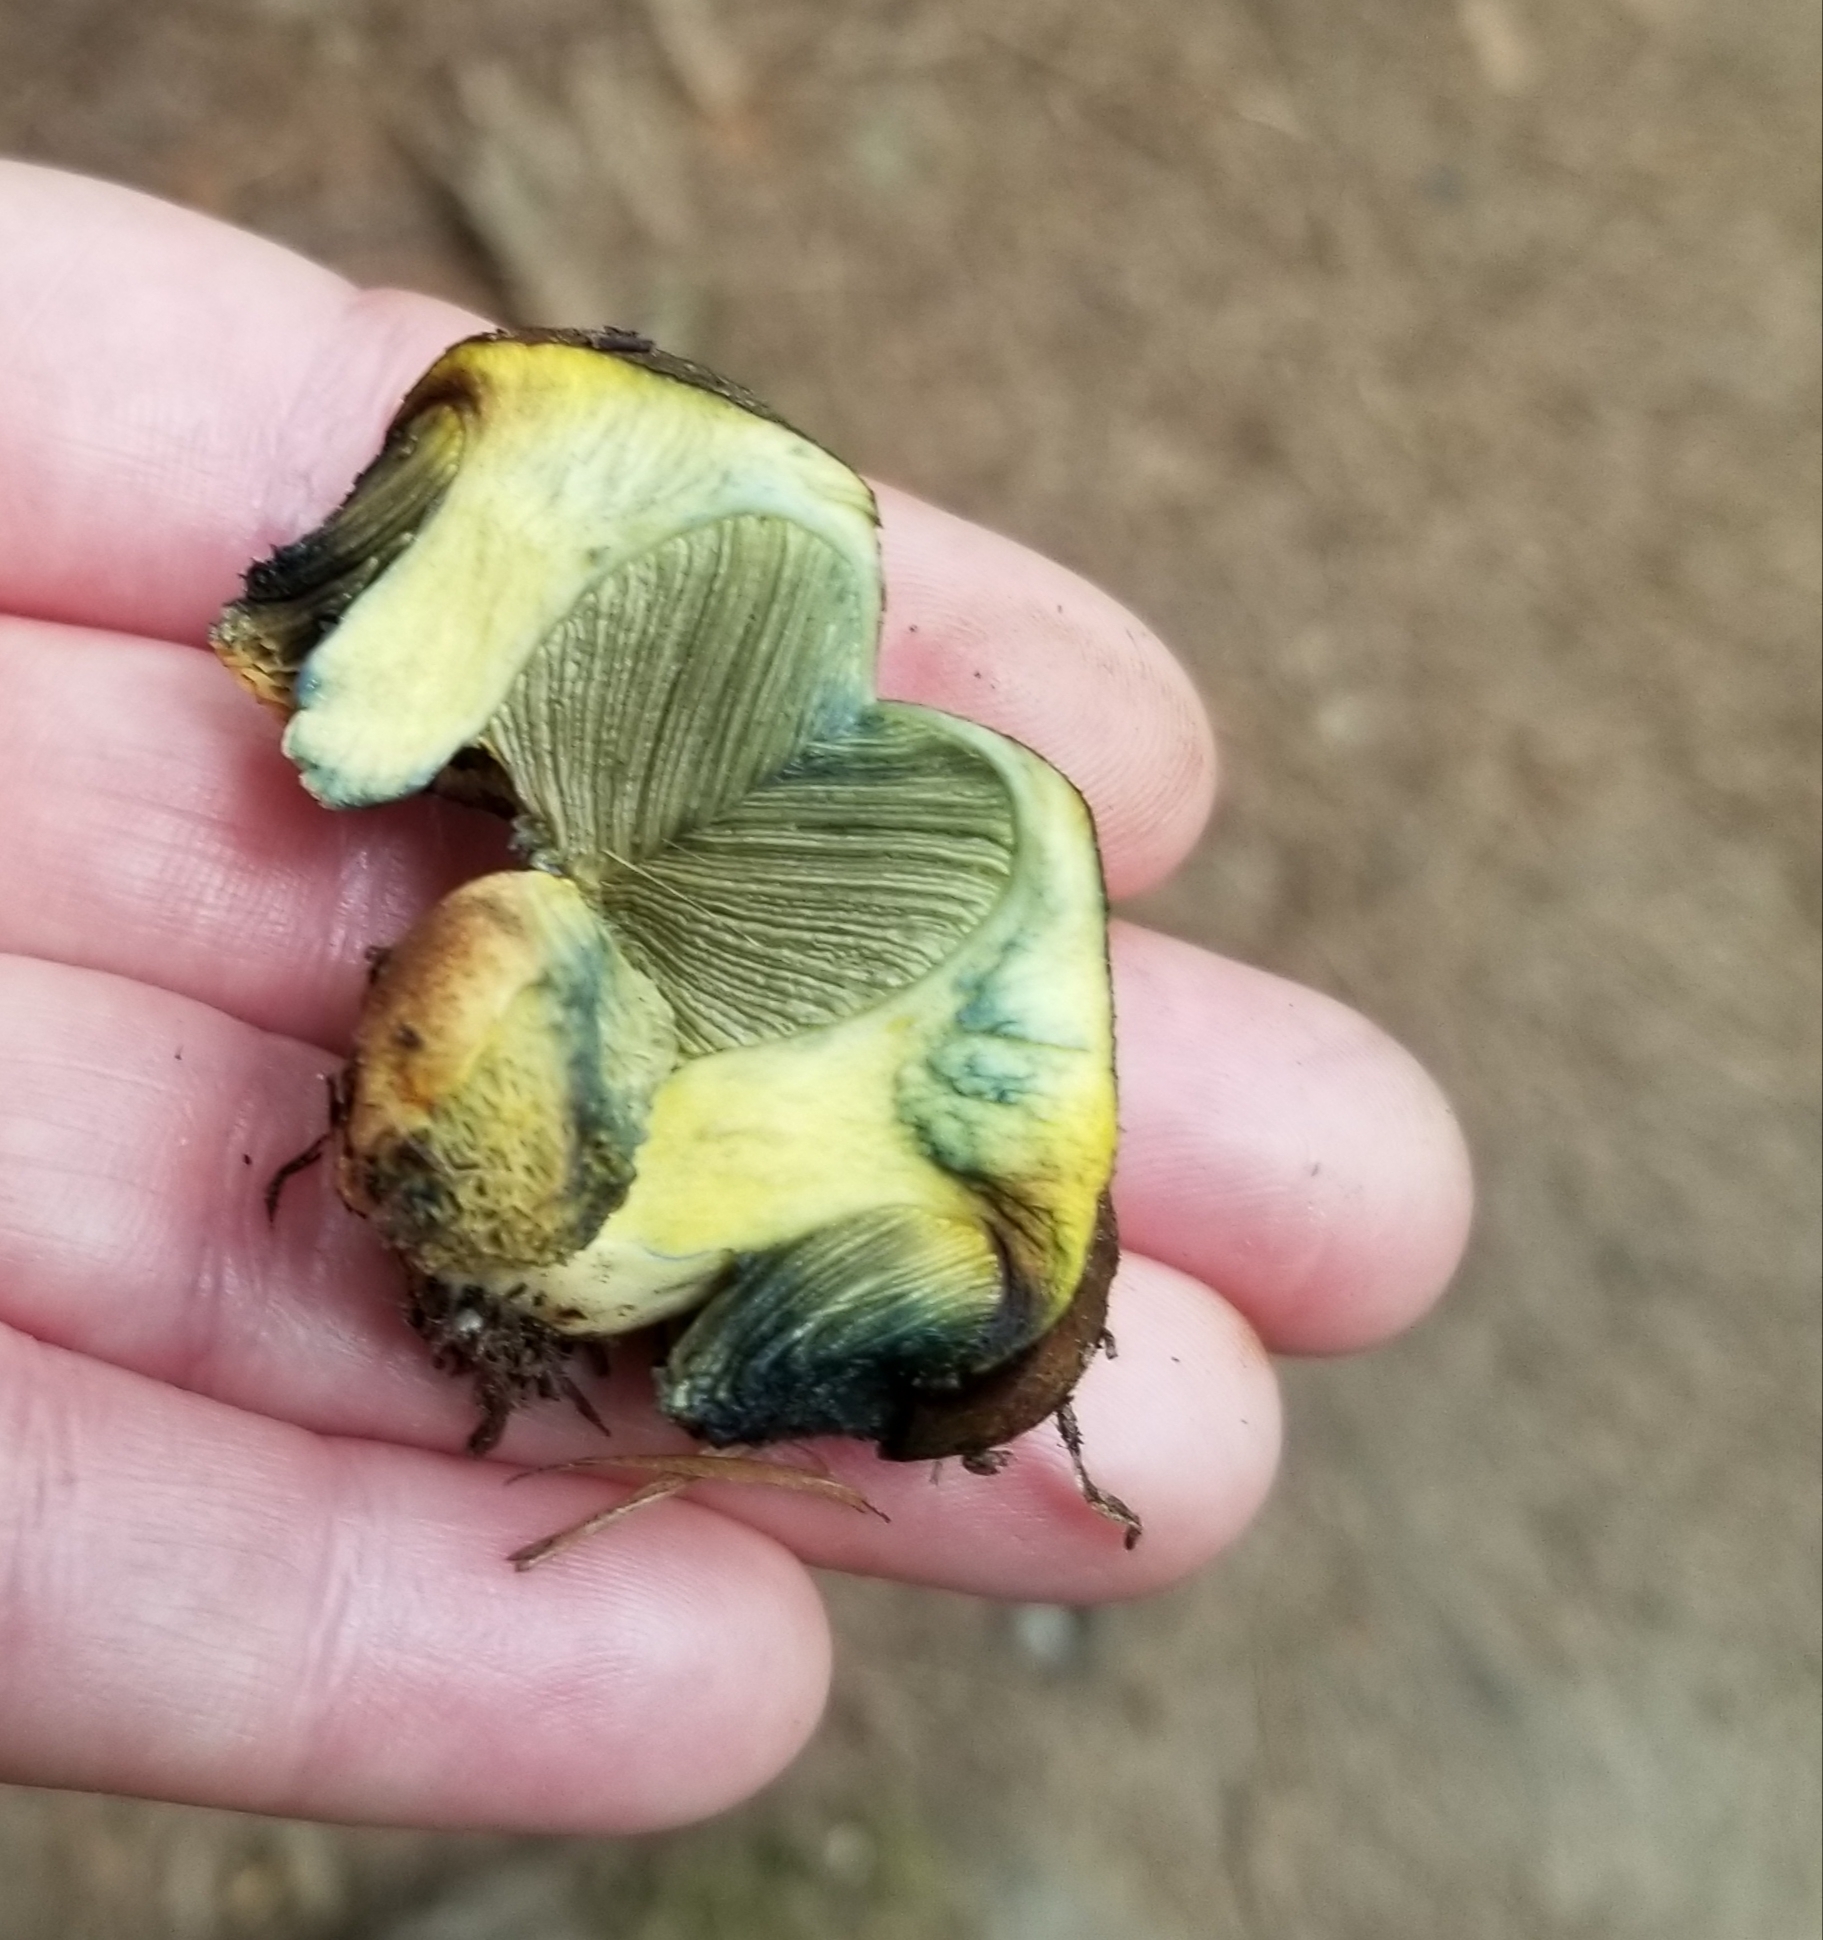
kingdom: Fungi
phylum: Basidiomycota
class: Agaricomycetes
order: Boletales
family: Boletaceae
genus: Gastroboletus
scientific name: Gastroboletus turbinatus
